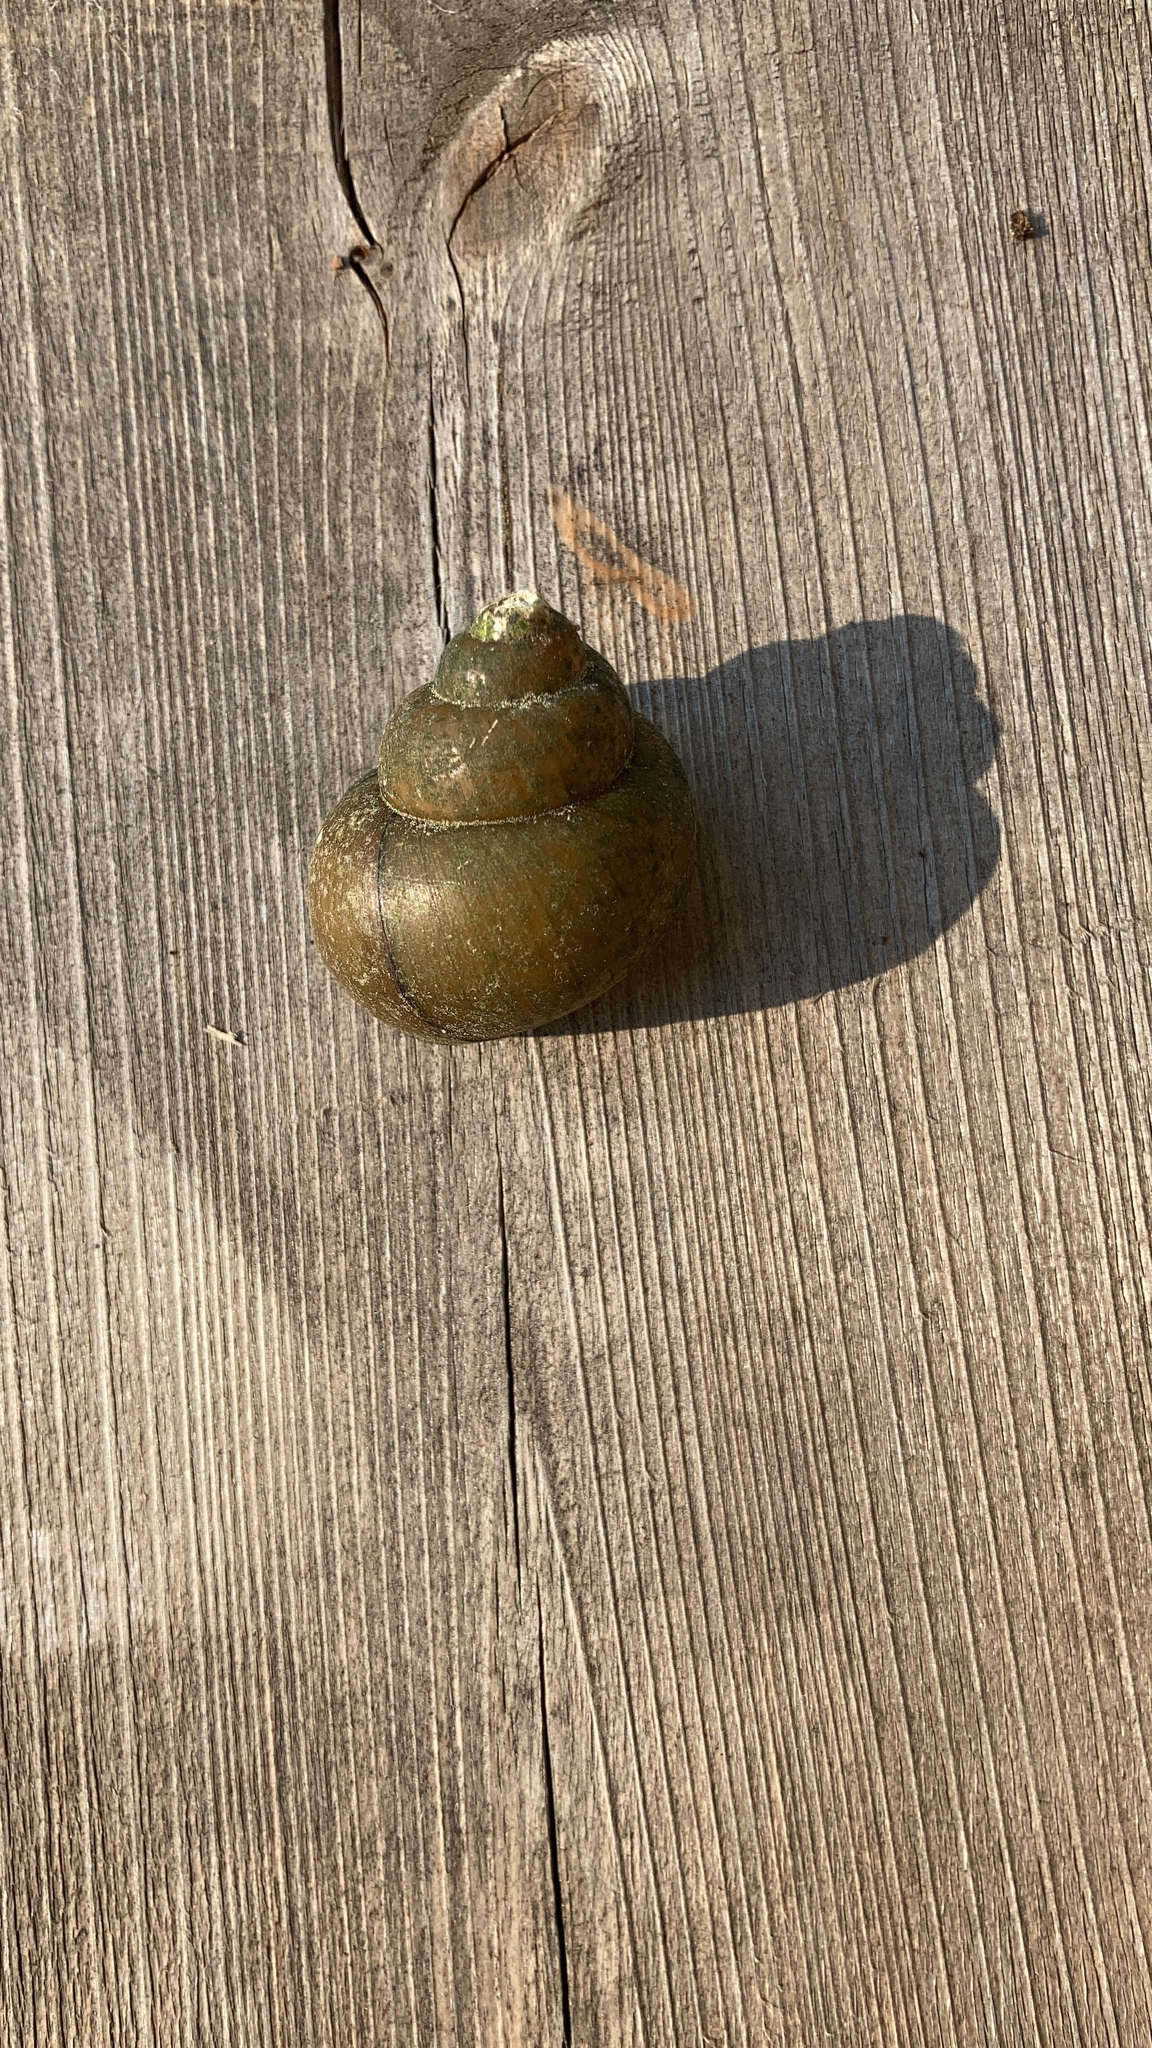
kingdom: Animalia
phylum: Mollusca
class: Gastropoda
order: Architaenioglossa
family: Viviparidae
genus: Cipangopaludina
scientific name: Cipangopaludina chinensis
